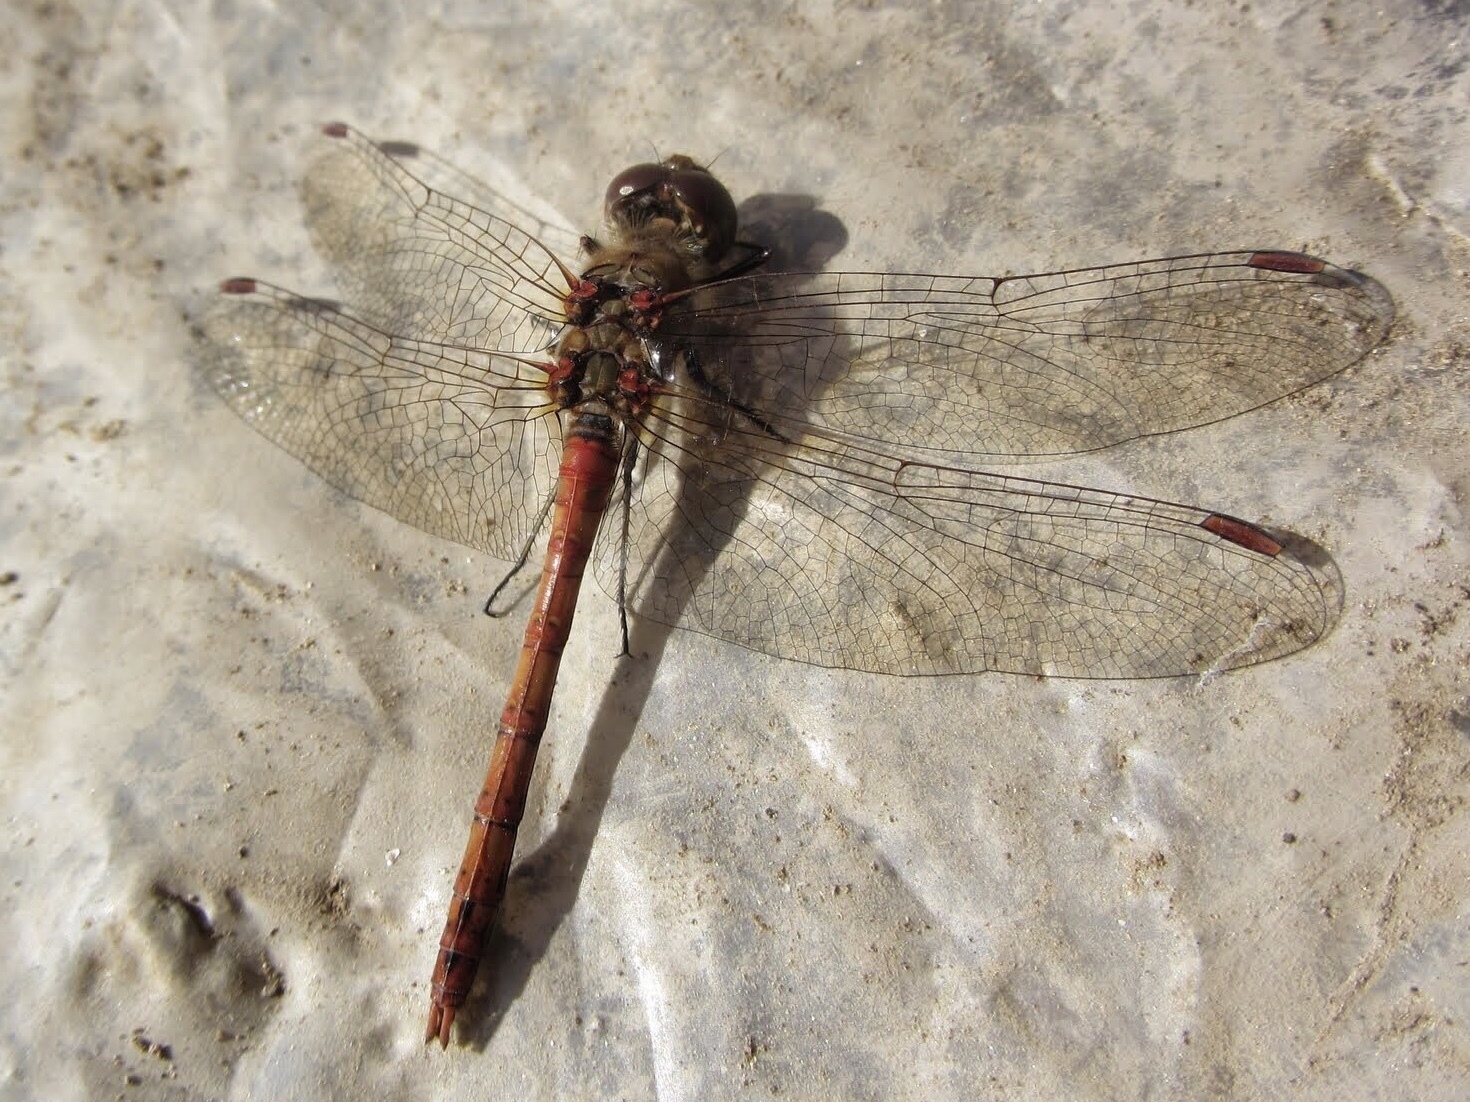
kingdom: Animalia
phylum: Arthropoda
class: Insecta
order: Odonata
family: Libellulidae
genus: Sympetrum
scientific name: Sympetrum striolatum
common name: Common darter
